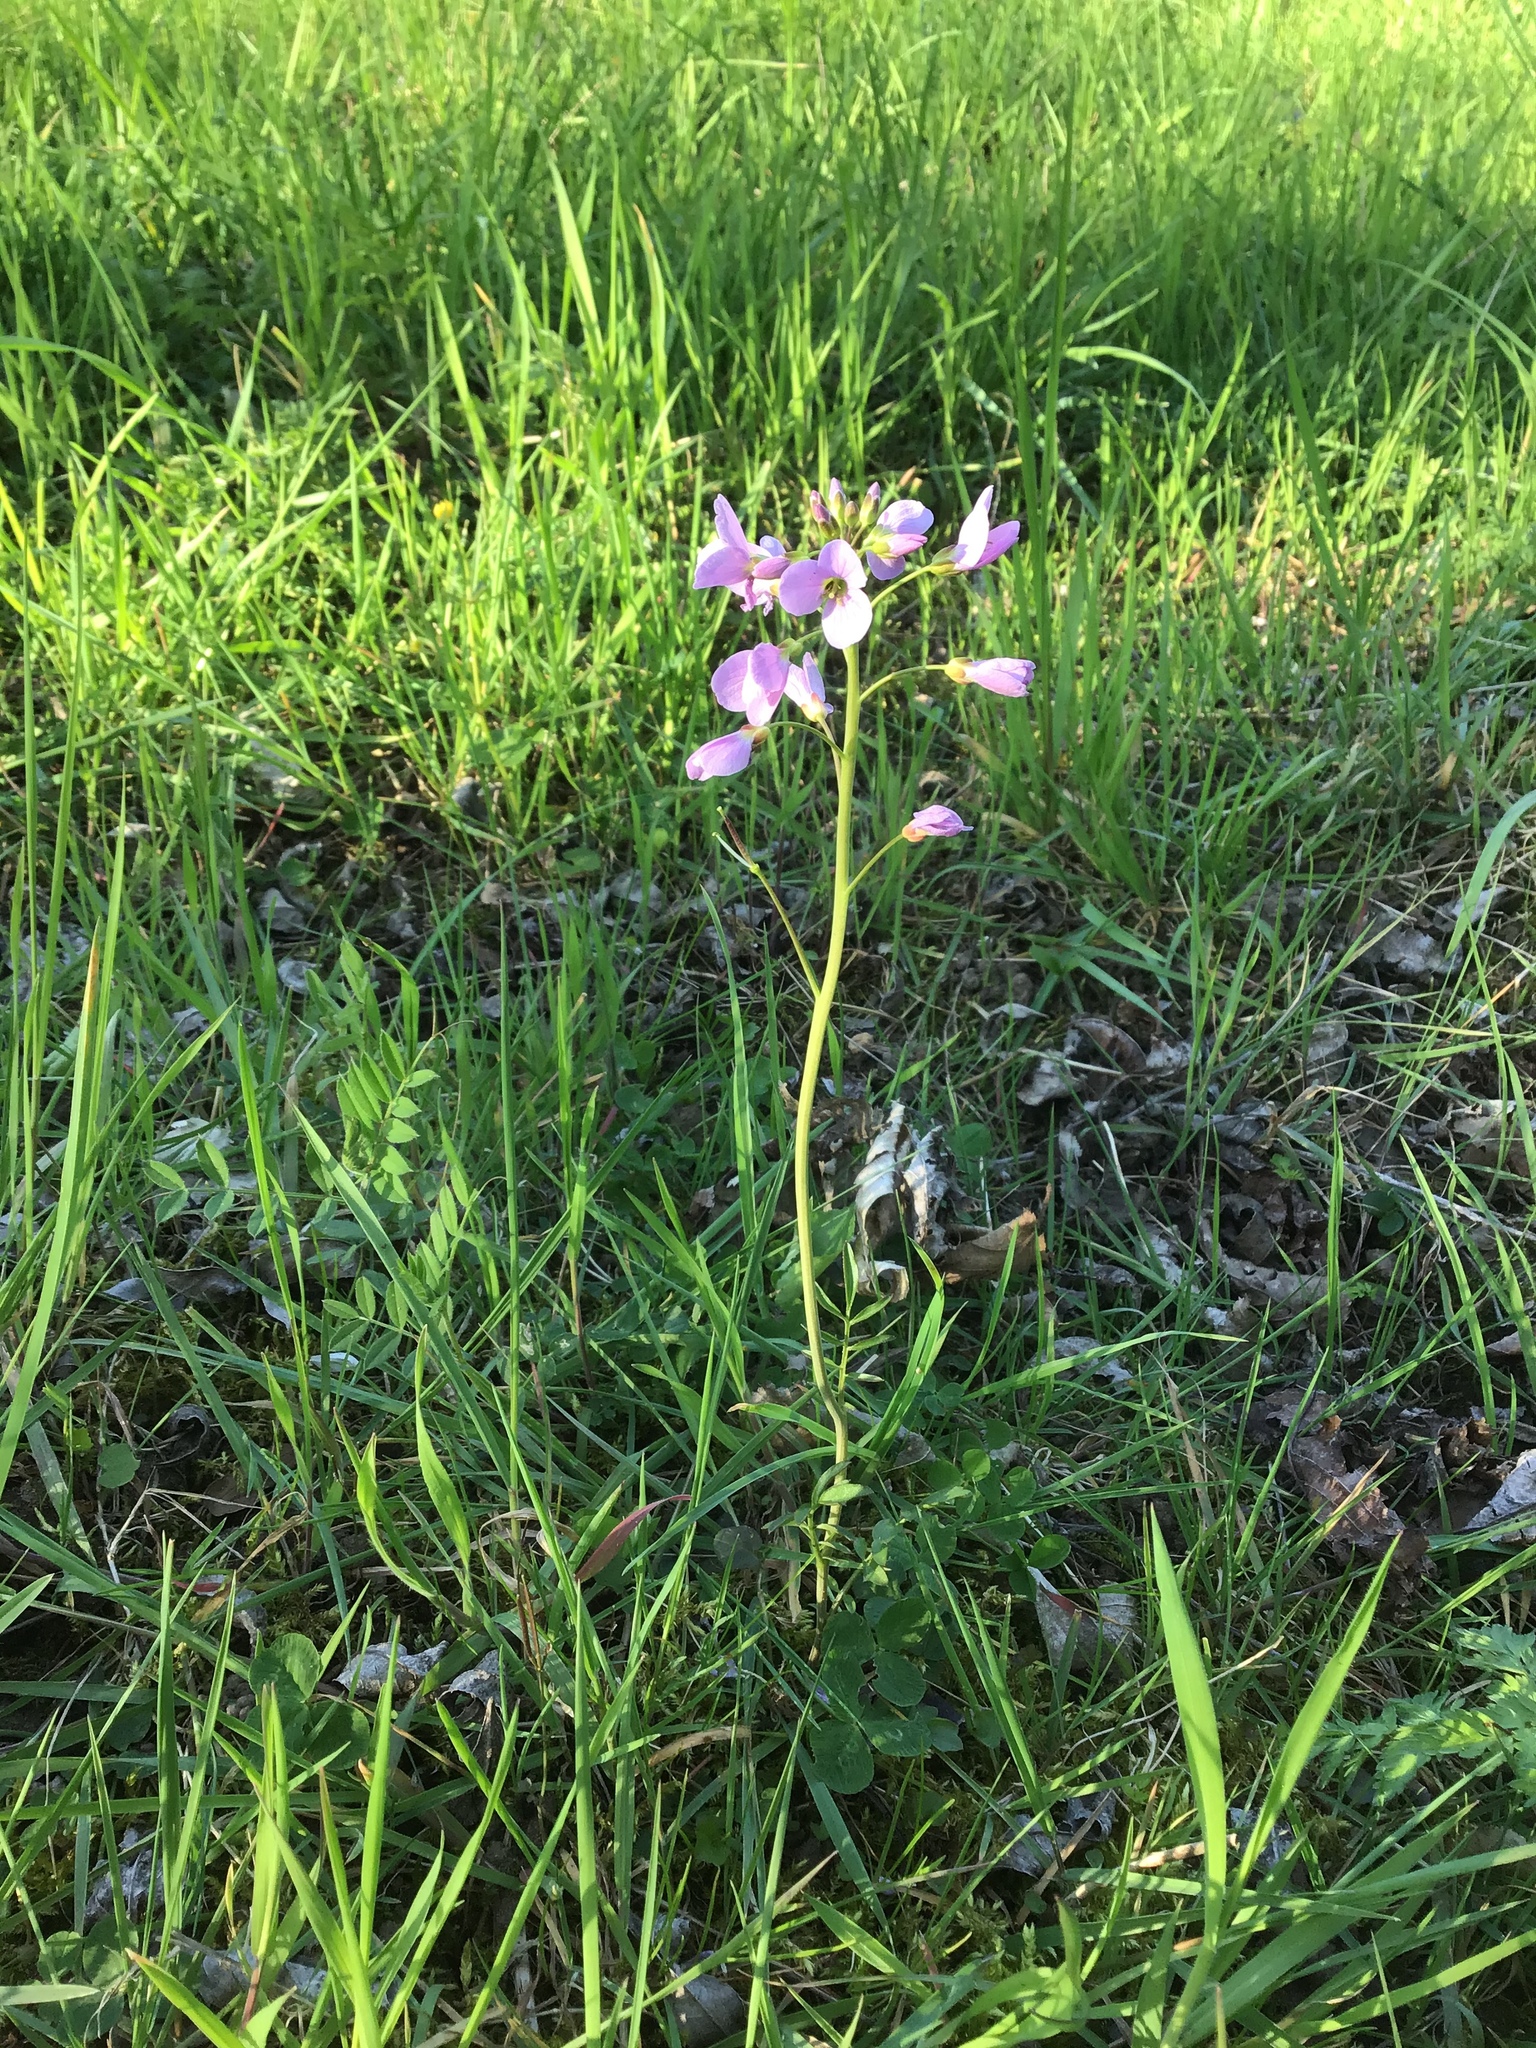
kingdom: Plantae
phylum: Tracheophyta
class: Magnoliopsida
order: Brassicales
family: Brassicaceae
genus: Cardamine
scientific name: Cardamine pratensis
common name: Cuckoo flower
